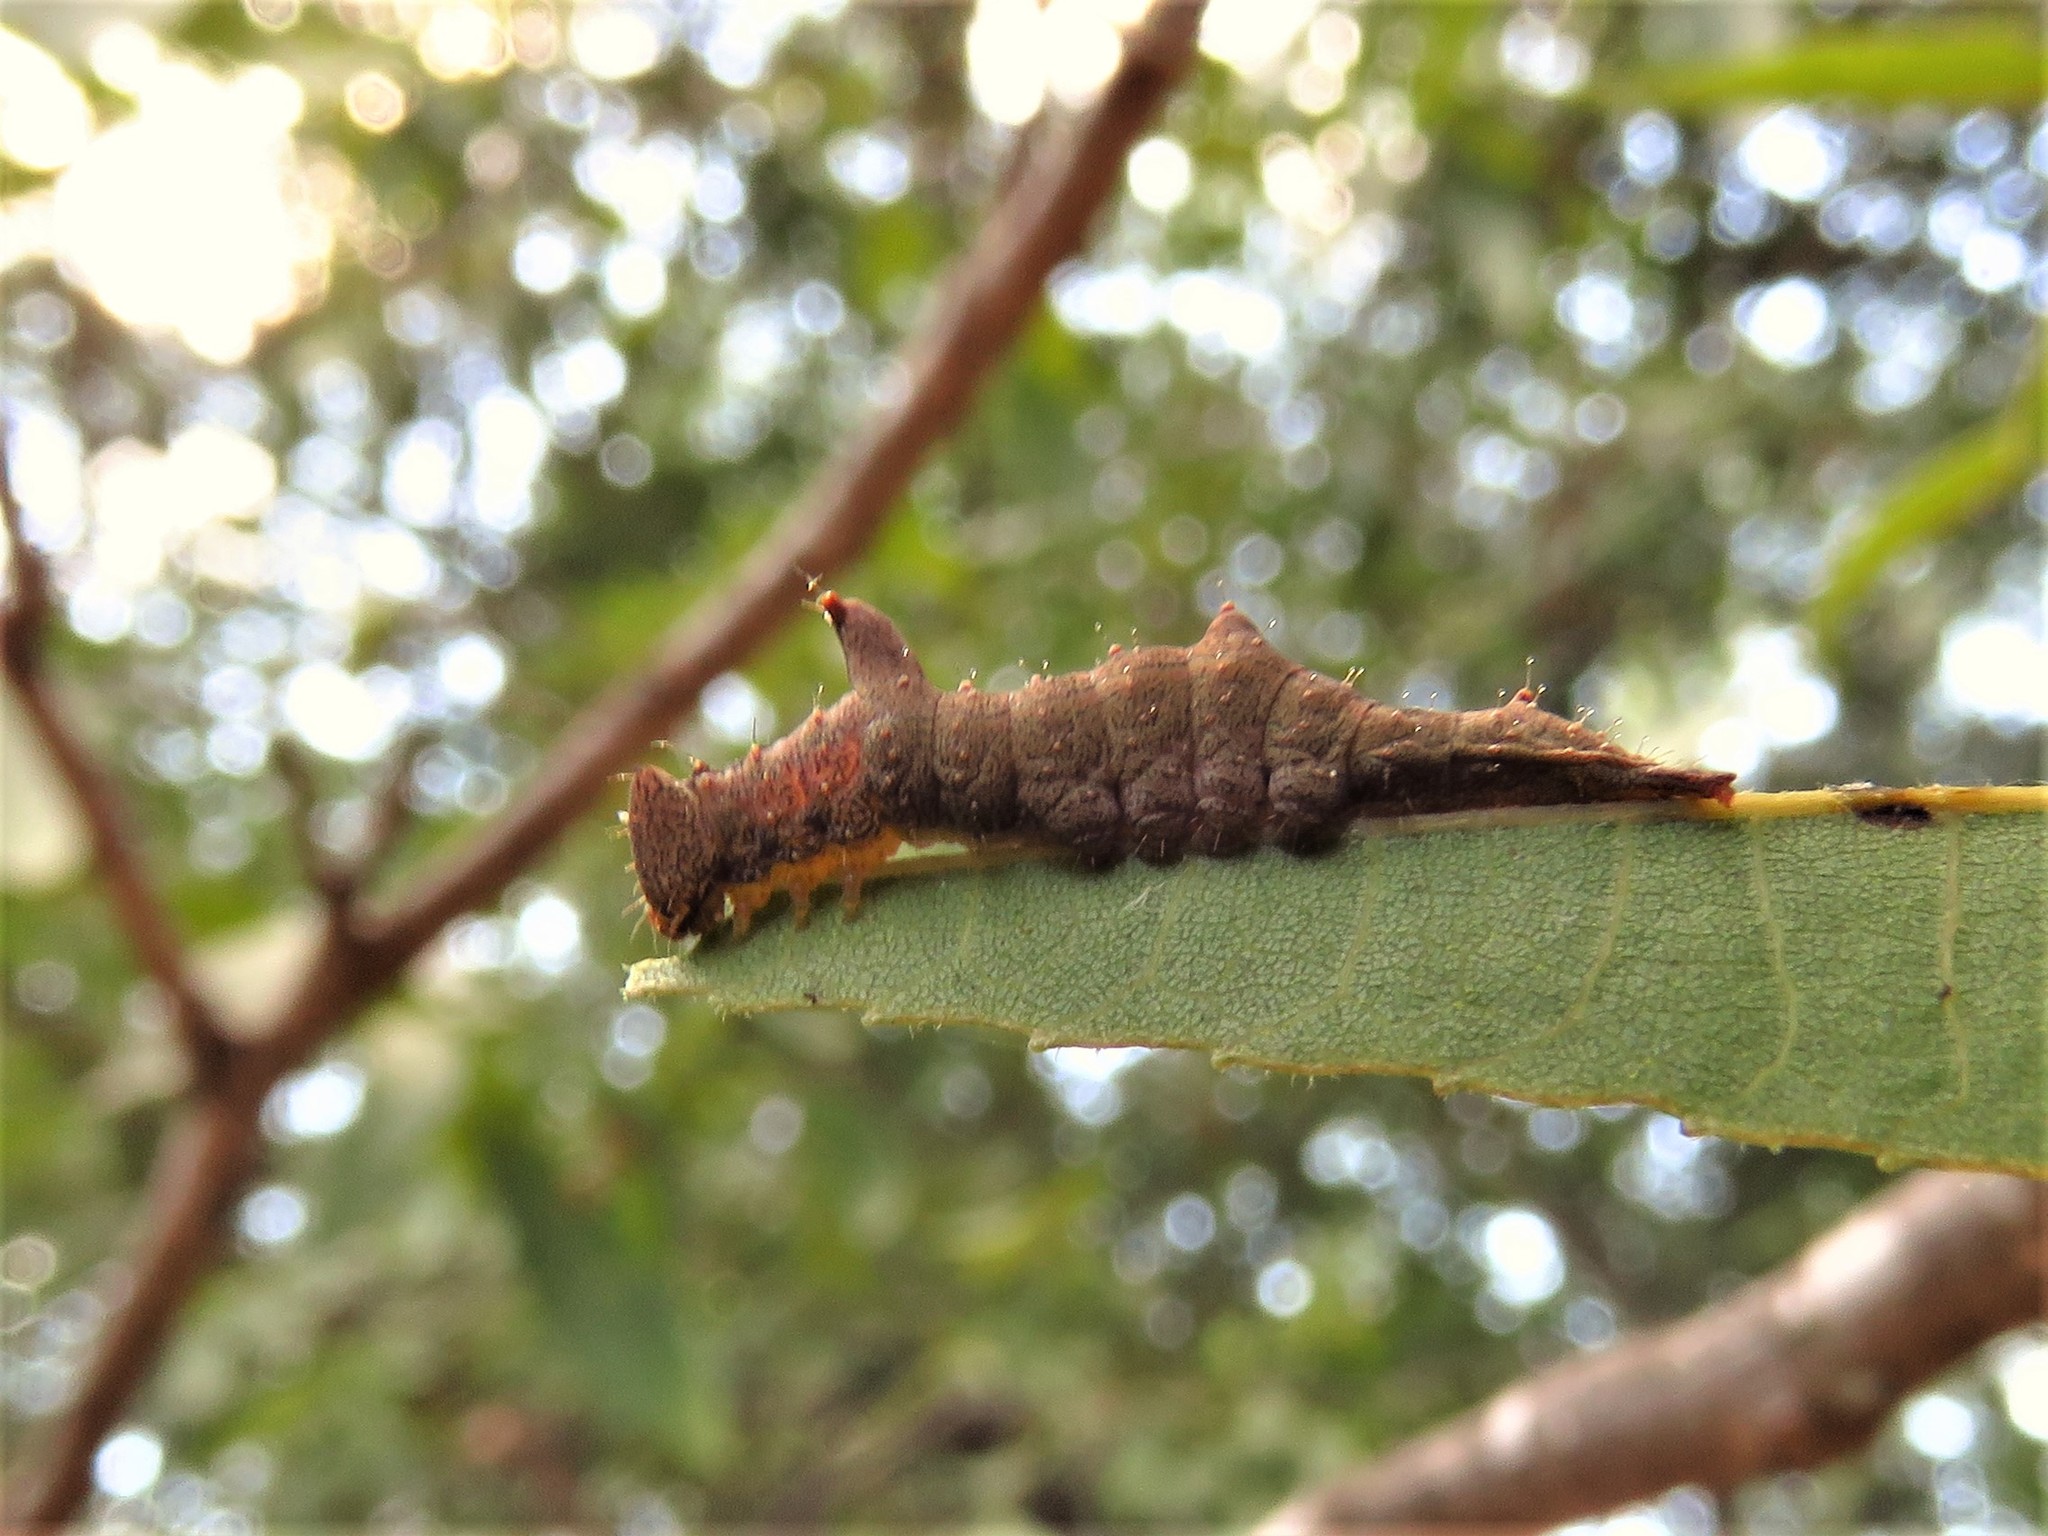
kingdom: Animalia
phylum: Arthropoda
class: Insecta
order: Lepidoptera
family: Notodontidae
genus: Schizura
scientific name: Schizura
